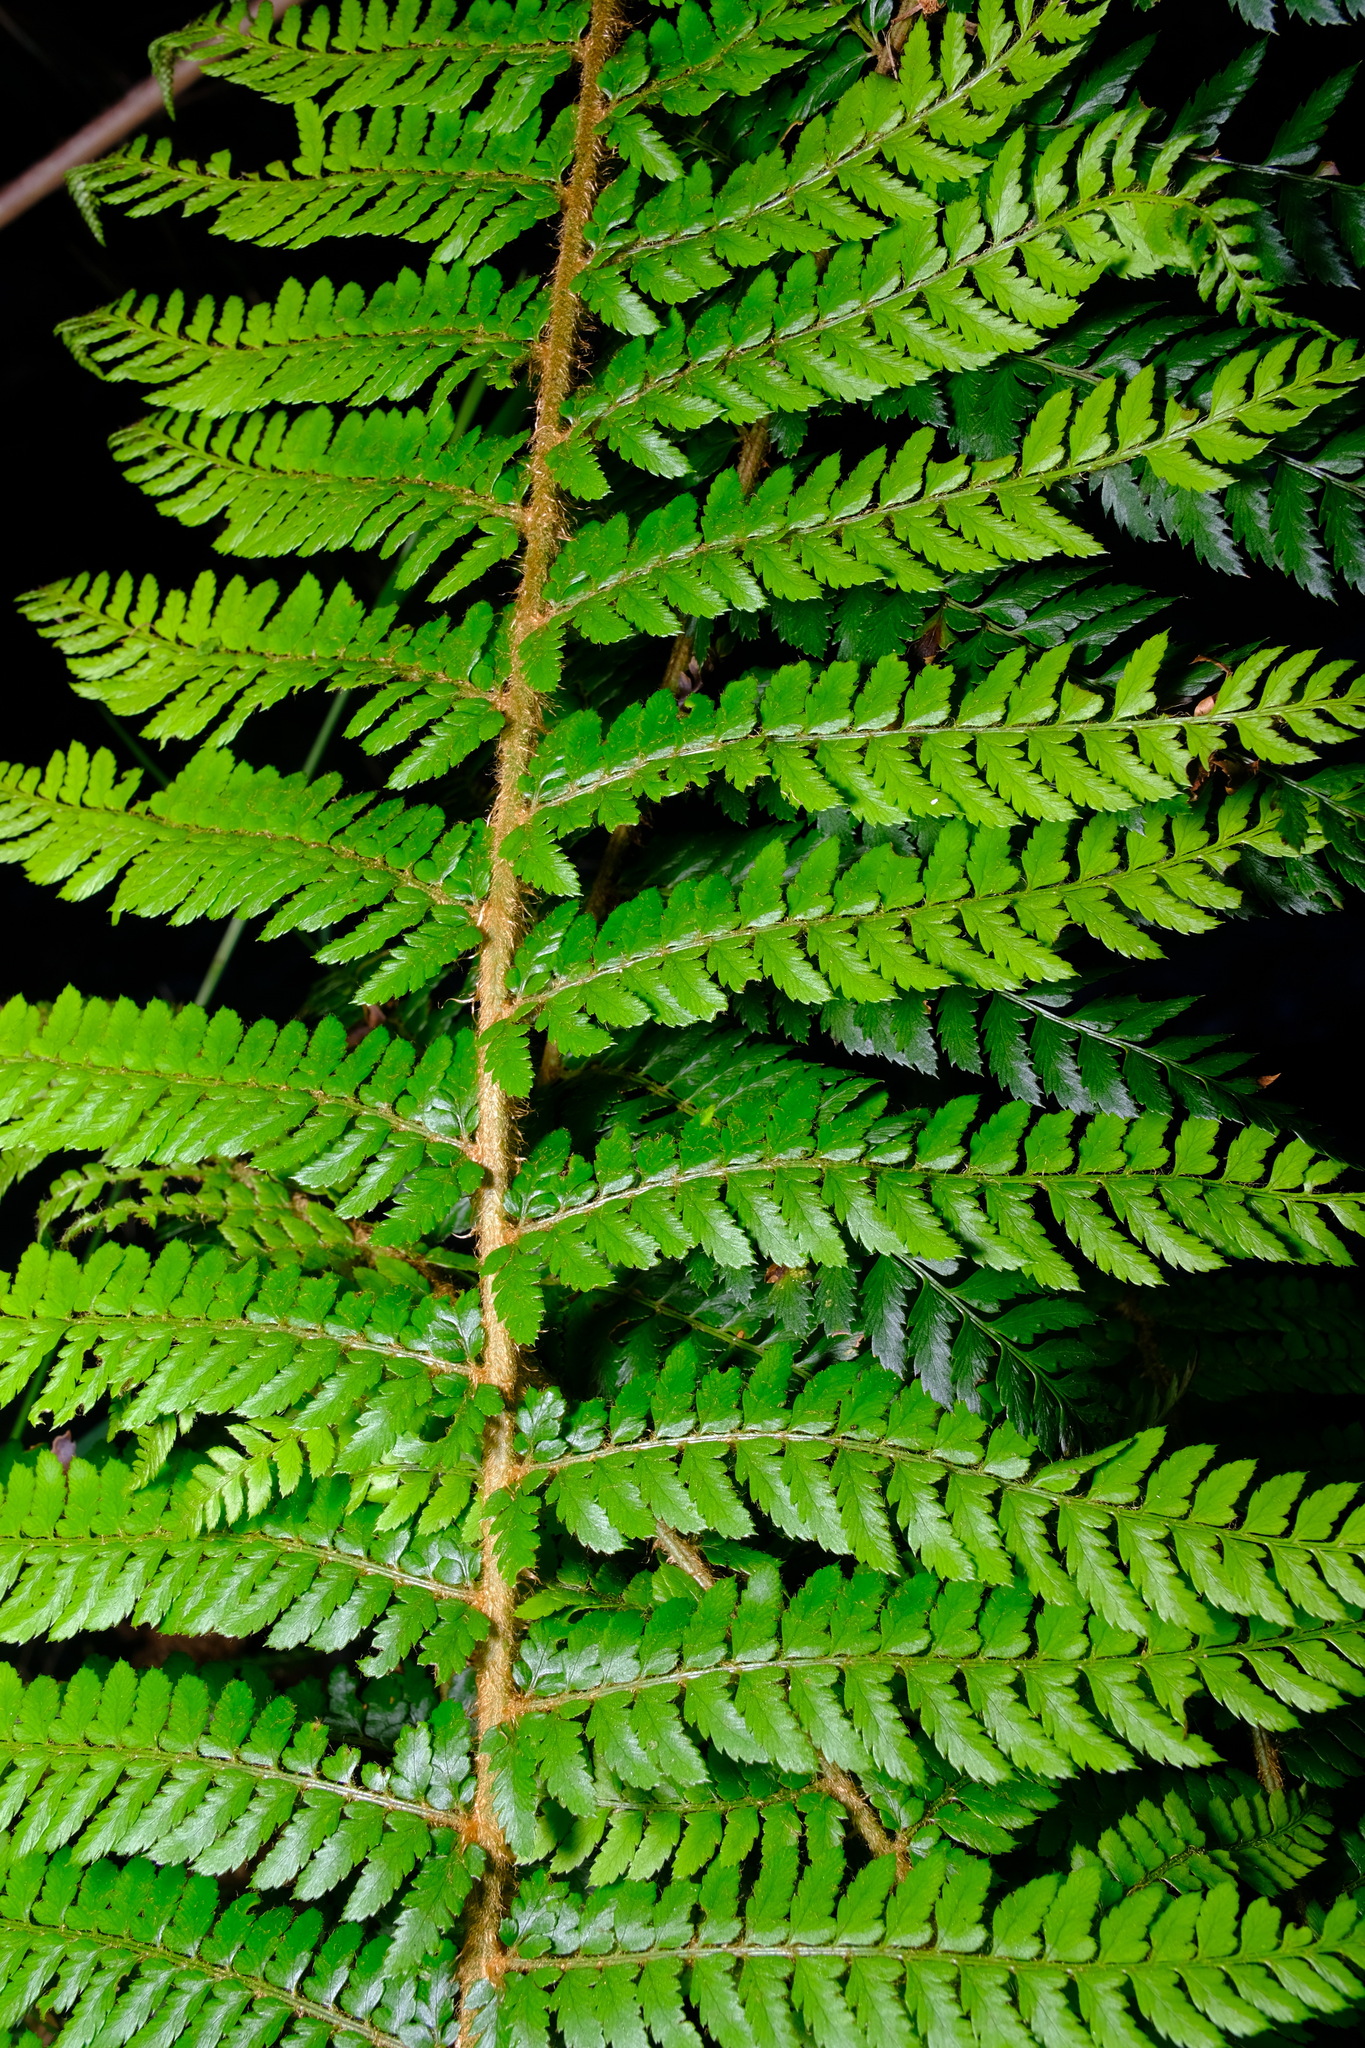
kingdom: Plantae
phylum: Tracheophyta
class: Polypodiopsida
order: Polypodiales
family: Dryopteridaceae
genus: Polystichum
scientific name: Polystichum proliferum
